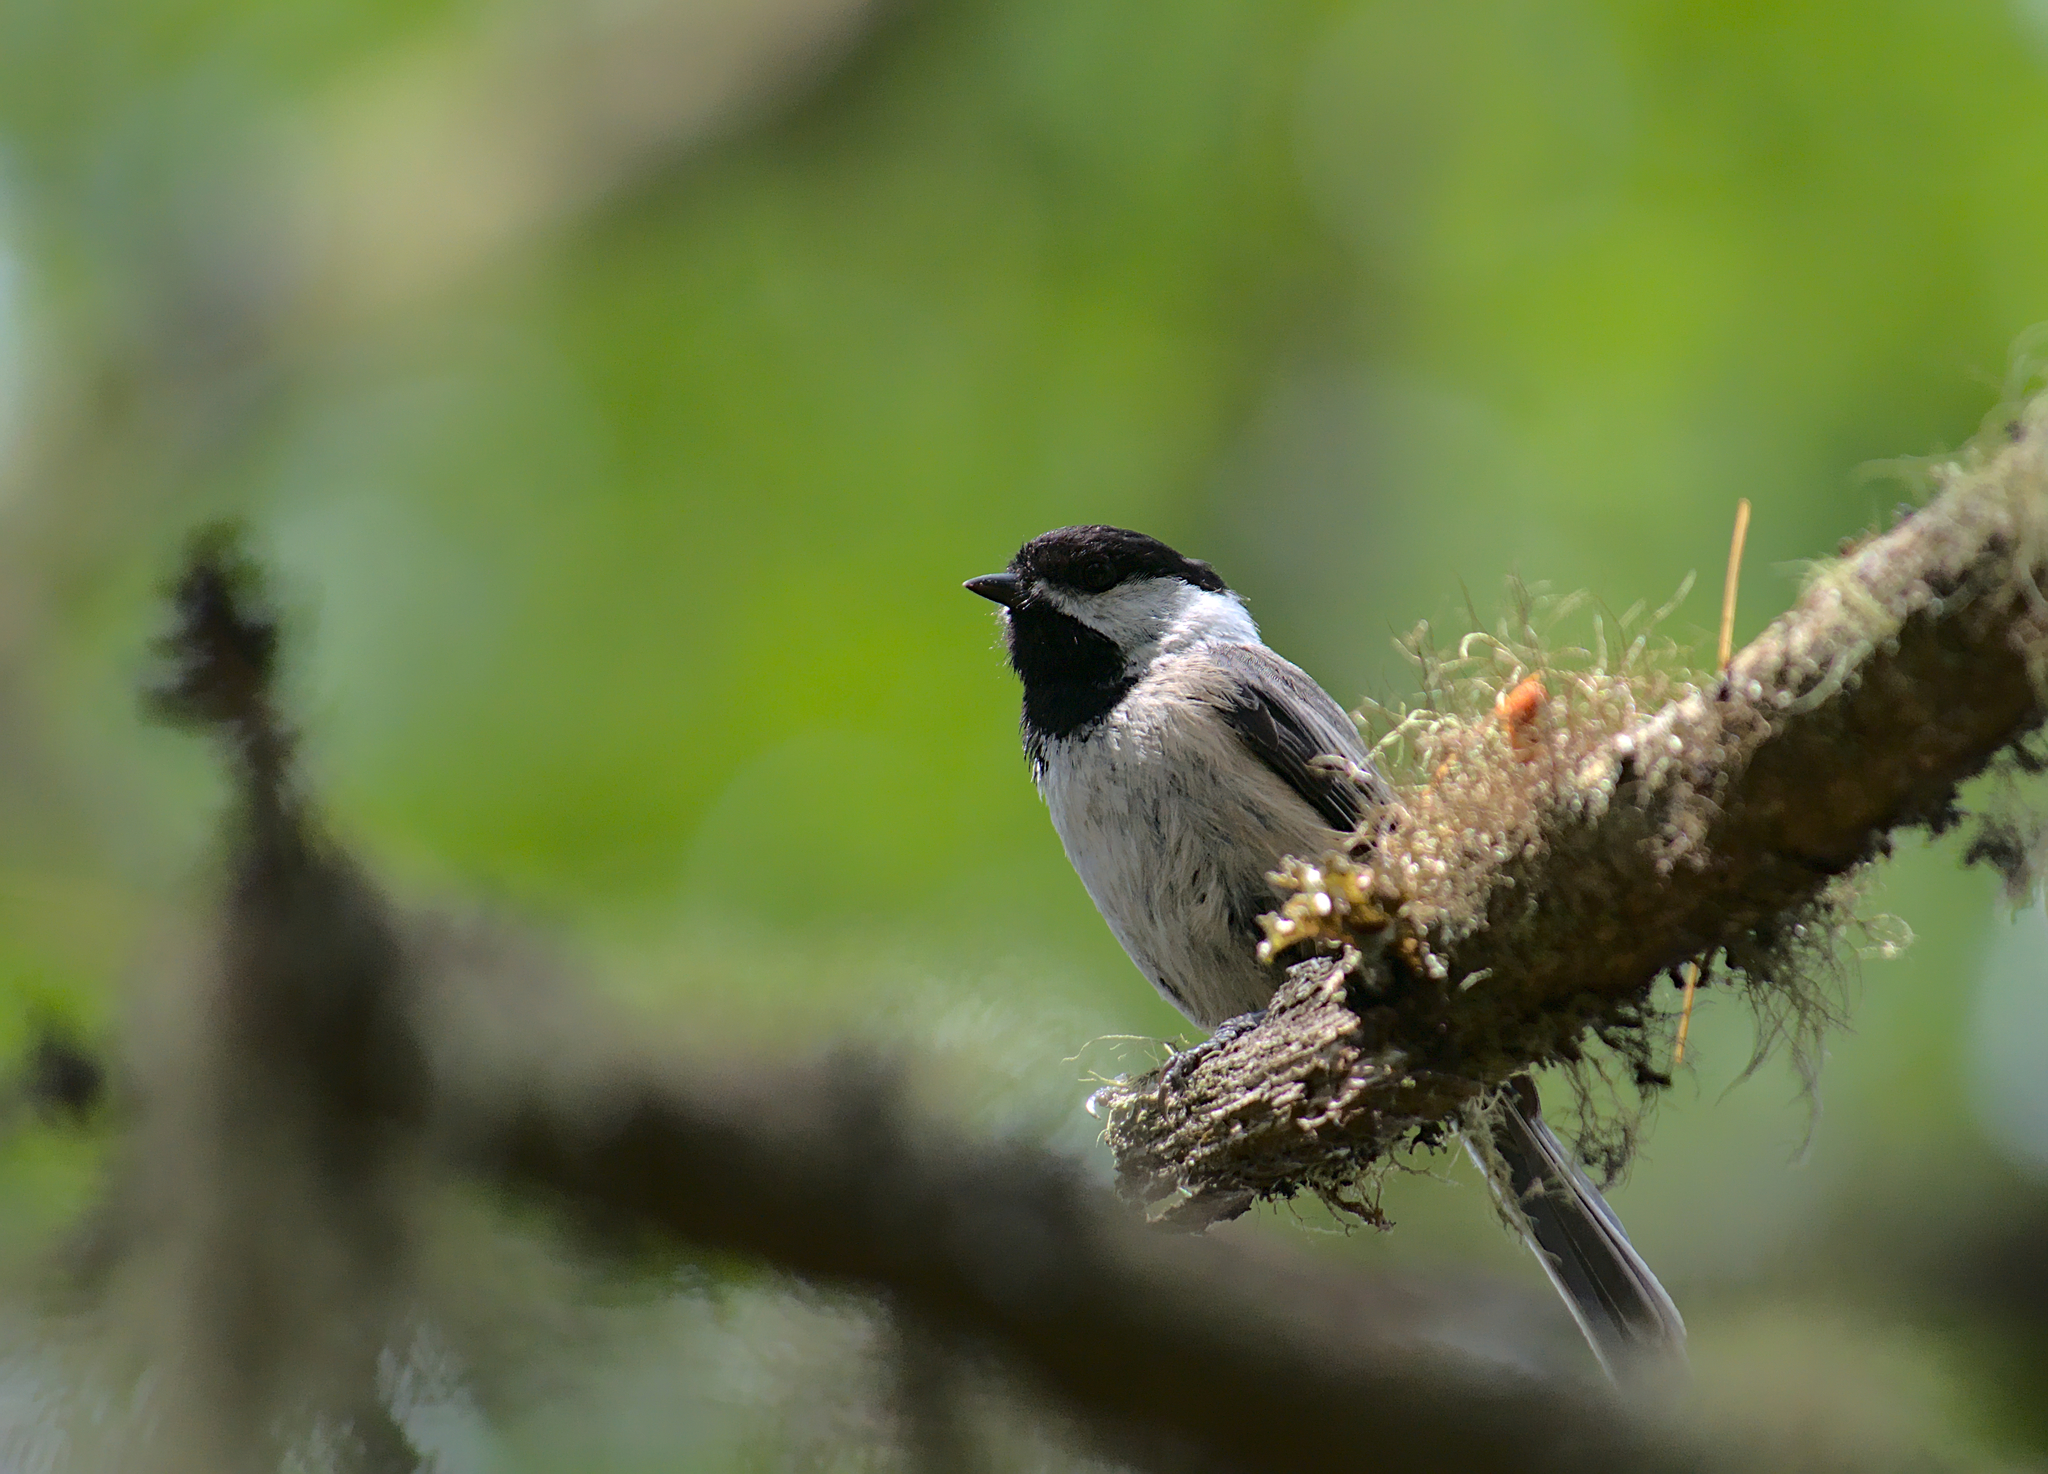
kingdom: Animalia
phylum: Chordata
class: Aves
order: Passeriformes
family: Paridae
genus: Poecile
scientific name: Poecile atricapillus
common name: Black-capped chickadee
